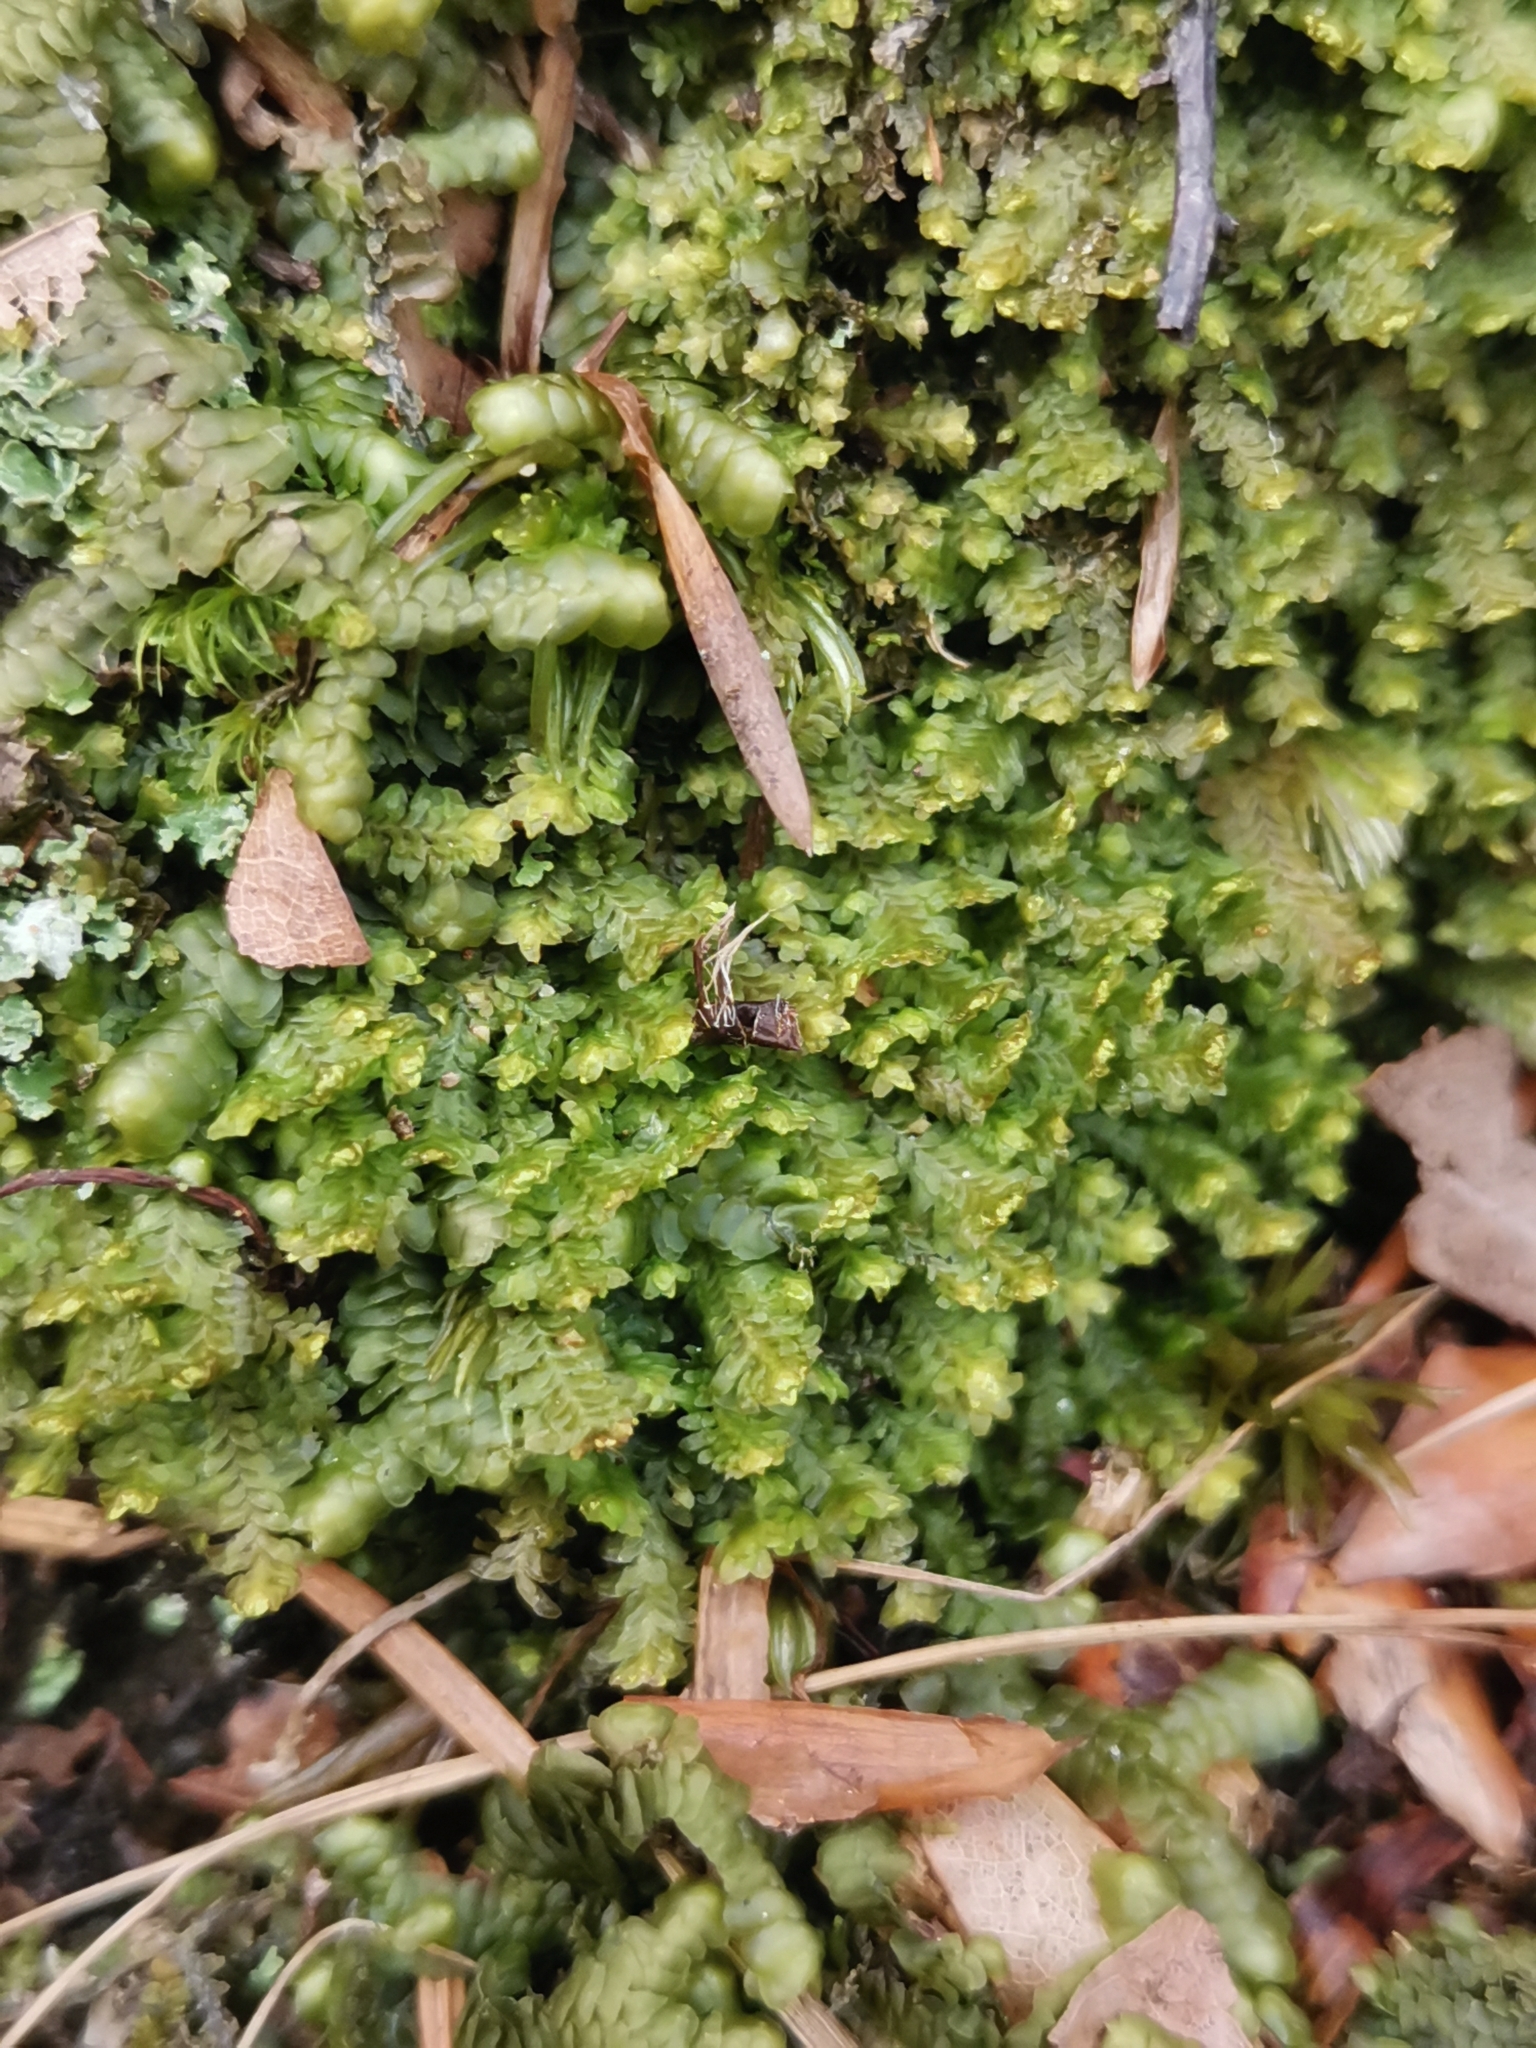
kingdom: Plantae
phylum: Marchantiophyta
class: Jungermanniopsida
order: Jungermanniales
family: Scapaniaceae
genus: Diplophyllum
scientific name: Diplophyllum albicans
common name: White earwort
